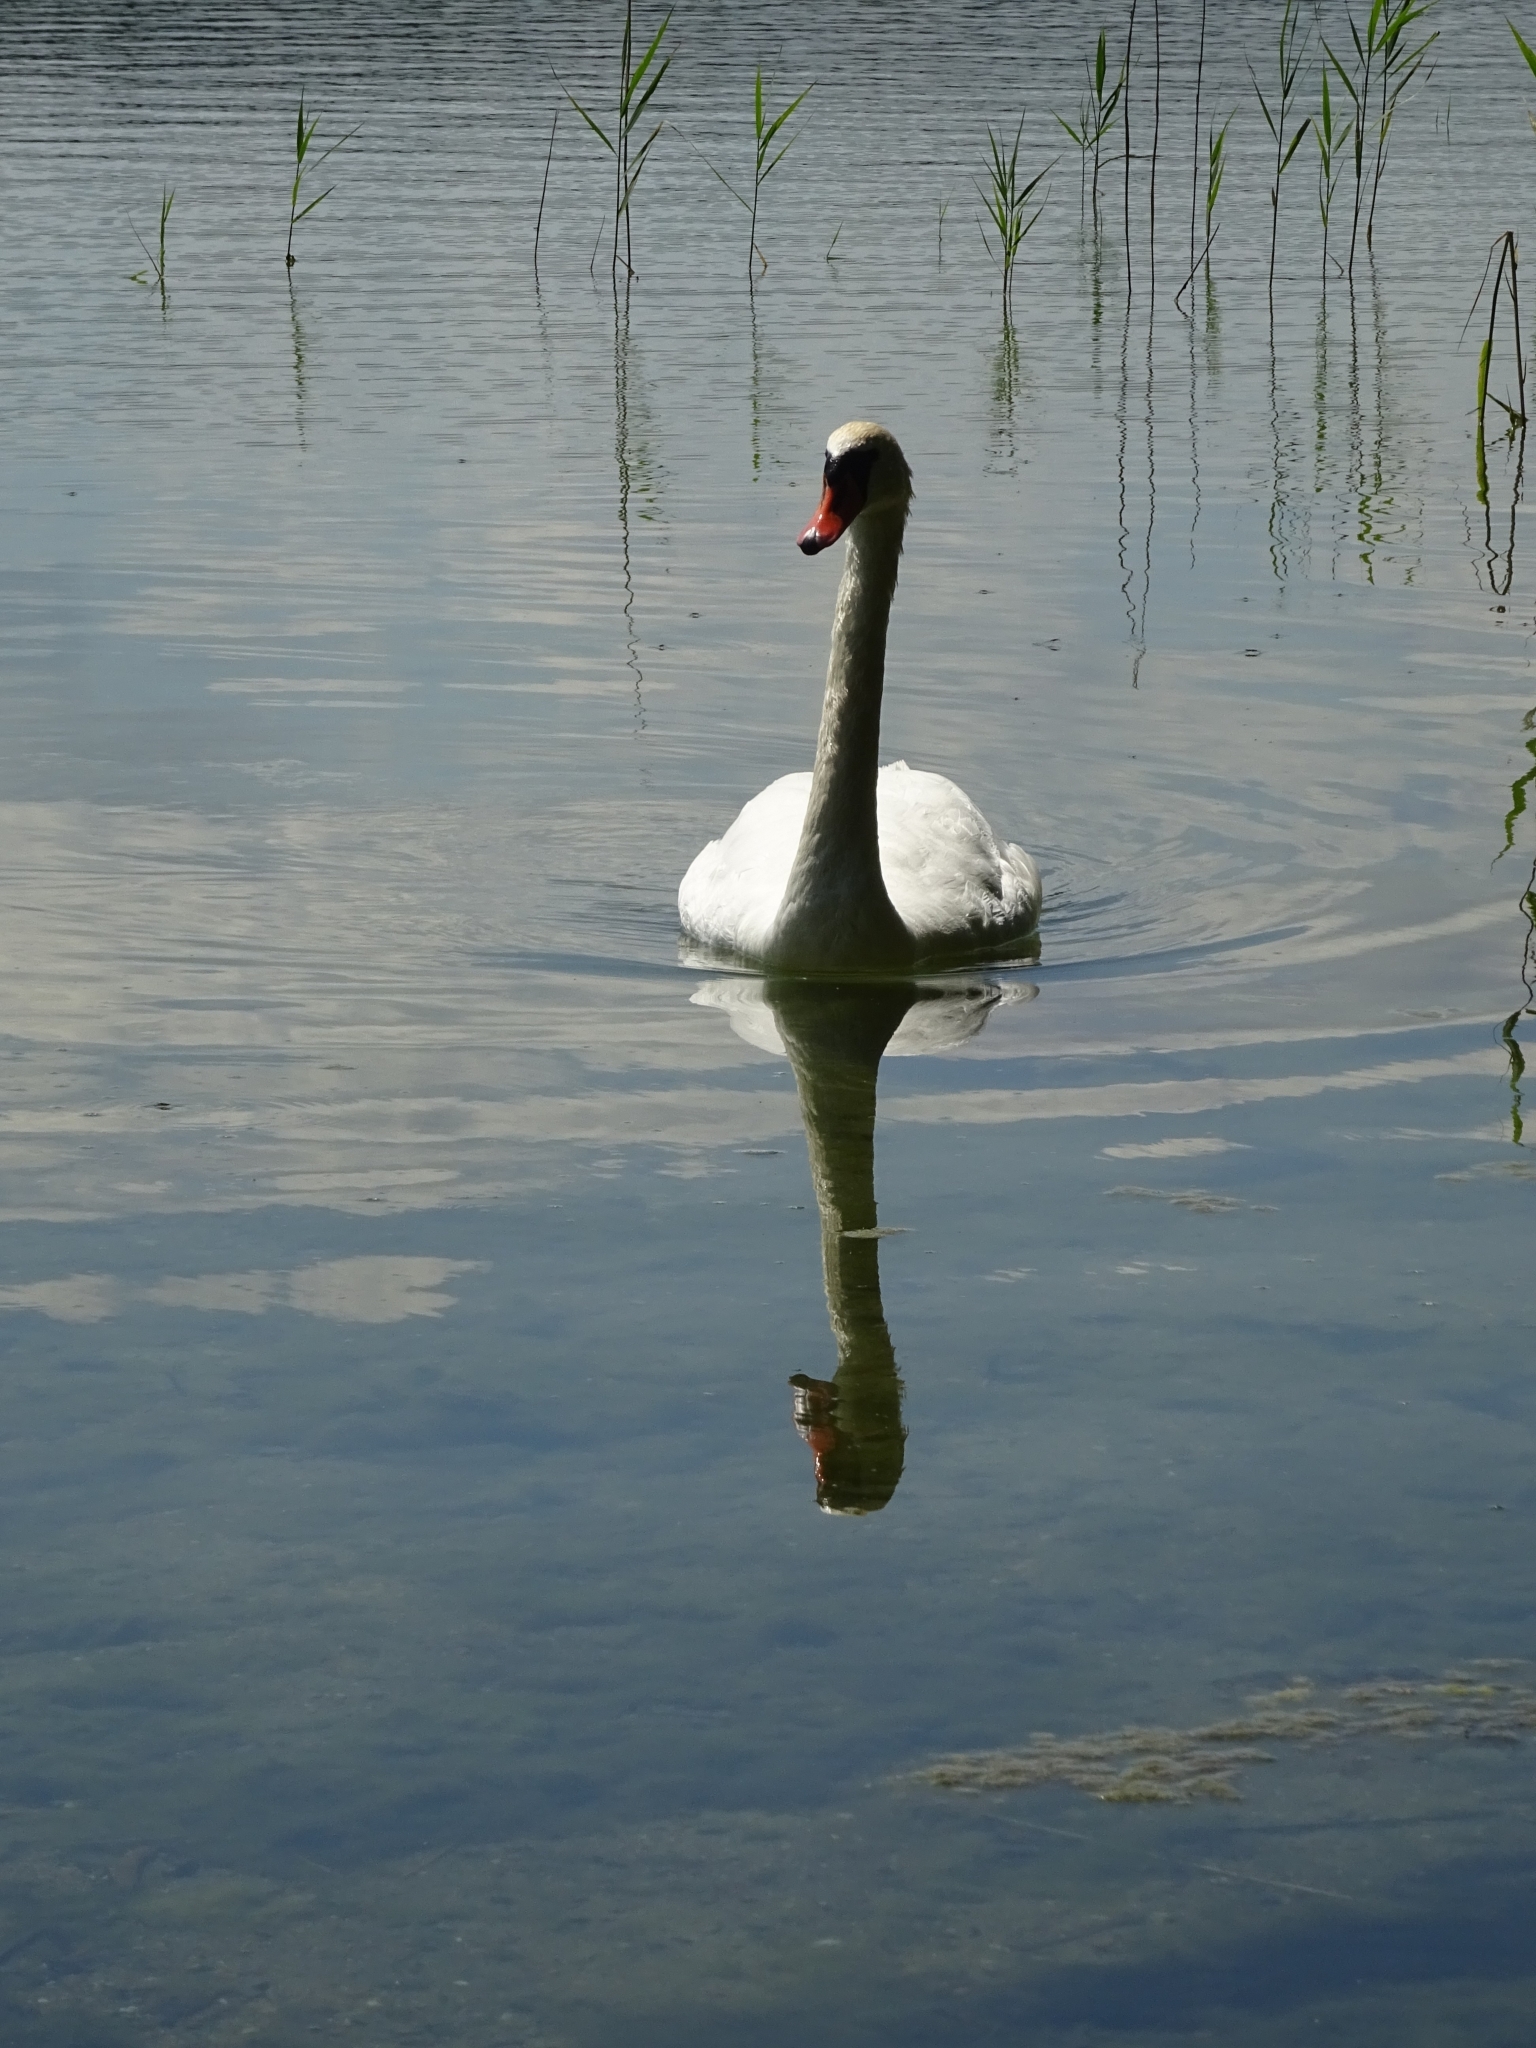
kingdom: Animalia
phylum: Chordata
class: Aves
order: Anseriformes
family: Anatidae
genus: Cygnus
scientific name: Cygnus olor
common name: Mute swan
